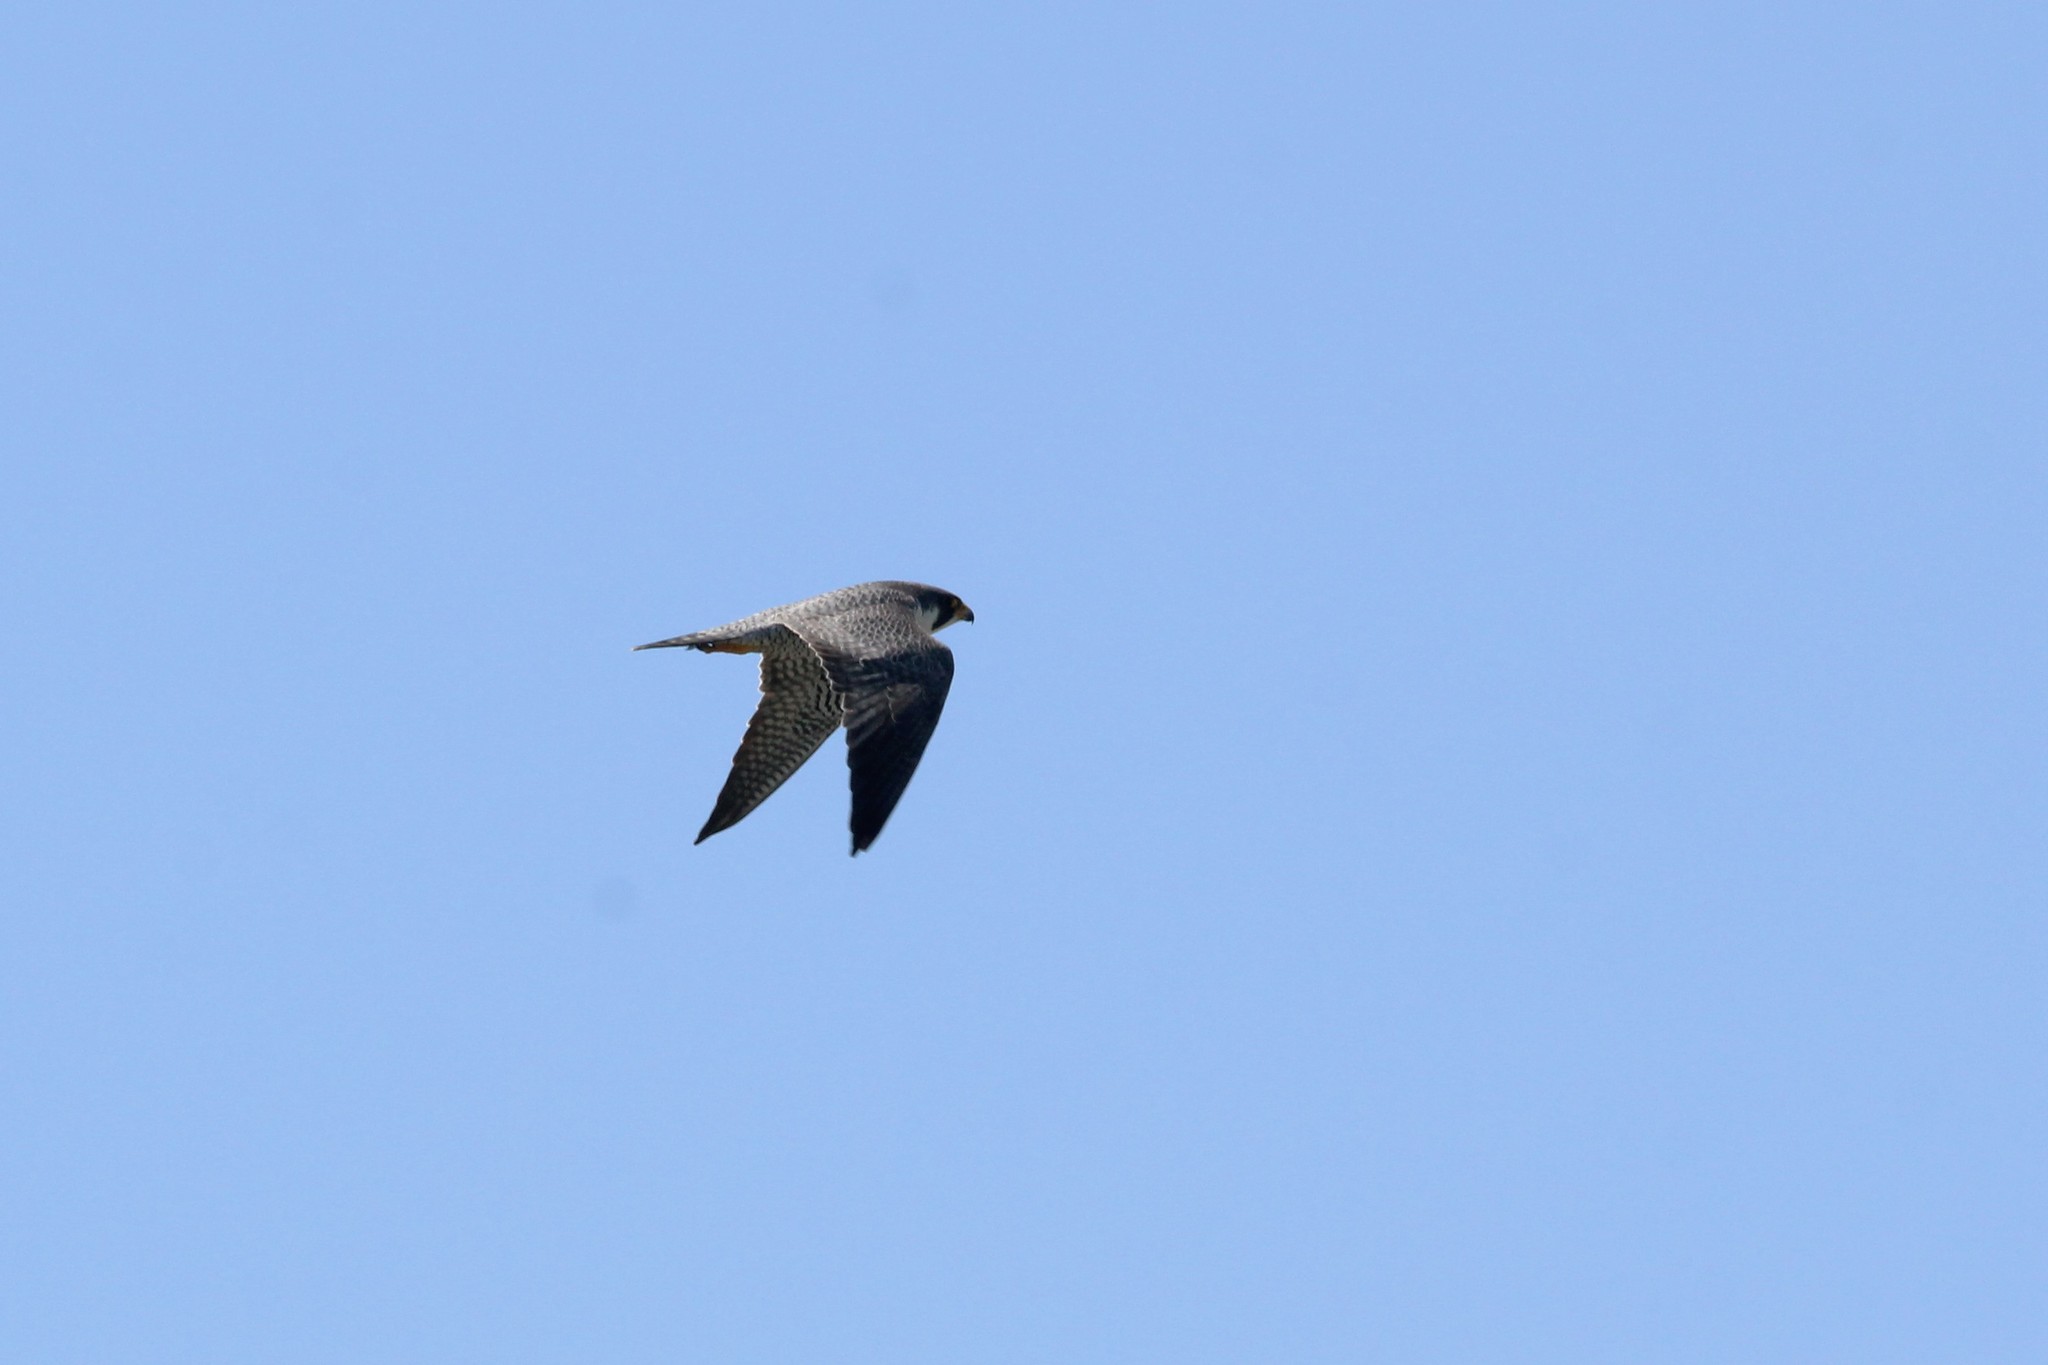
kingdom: Animalia
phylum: Chordata
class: Aves
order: Falconiformes
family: Falconidae
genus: Falco
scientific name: Falco peregrinus
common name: Peregrine falcon
